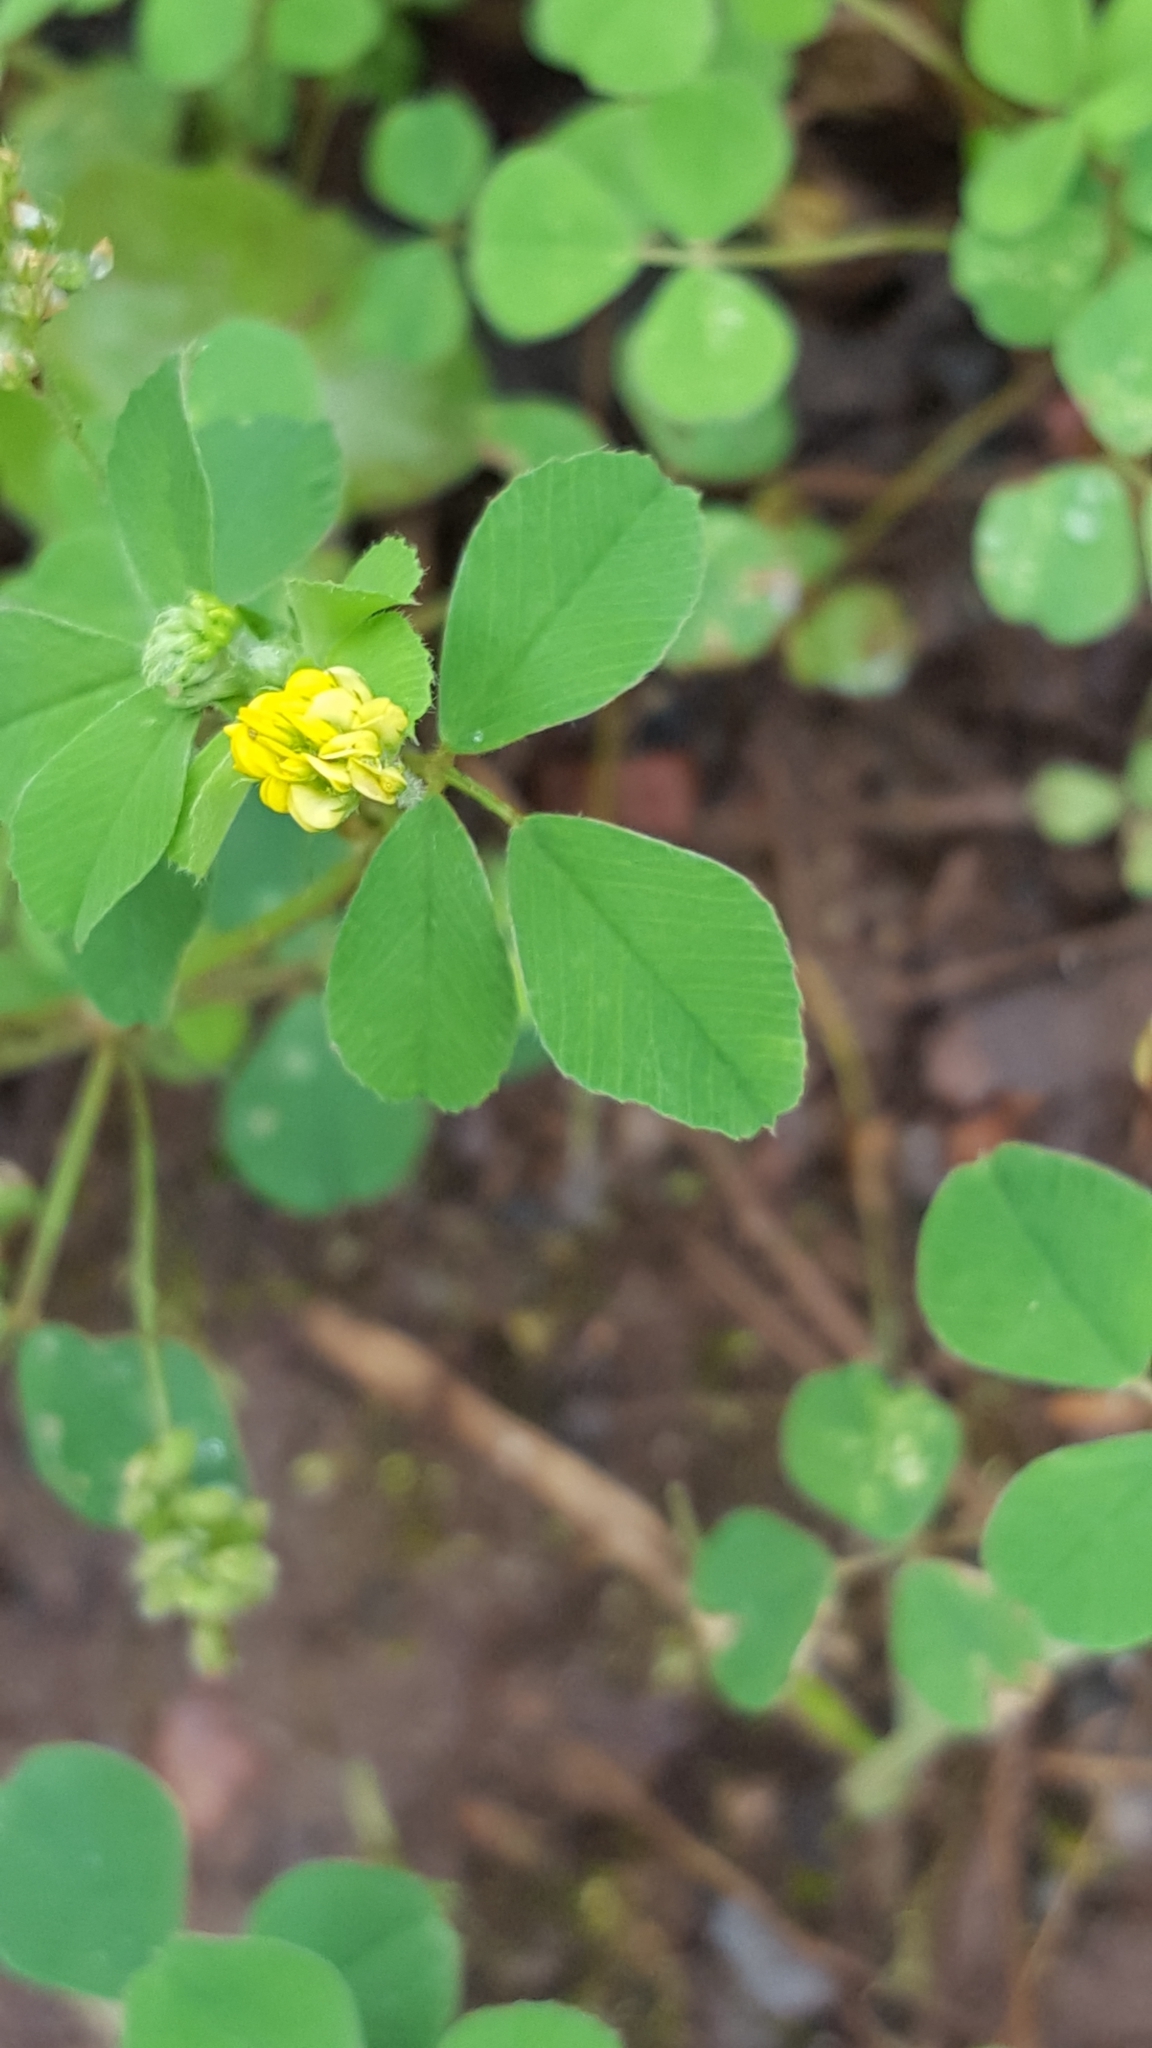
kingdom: Plantae
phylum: Tracheophyta
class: Magnoliopsida
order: Fabales
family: Fabaceae
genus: Medicago
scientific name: Medicago lupulina
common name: Black medick
